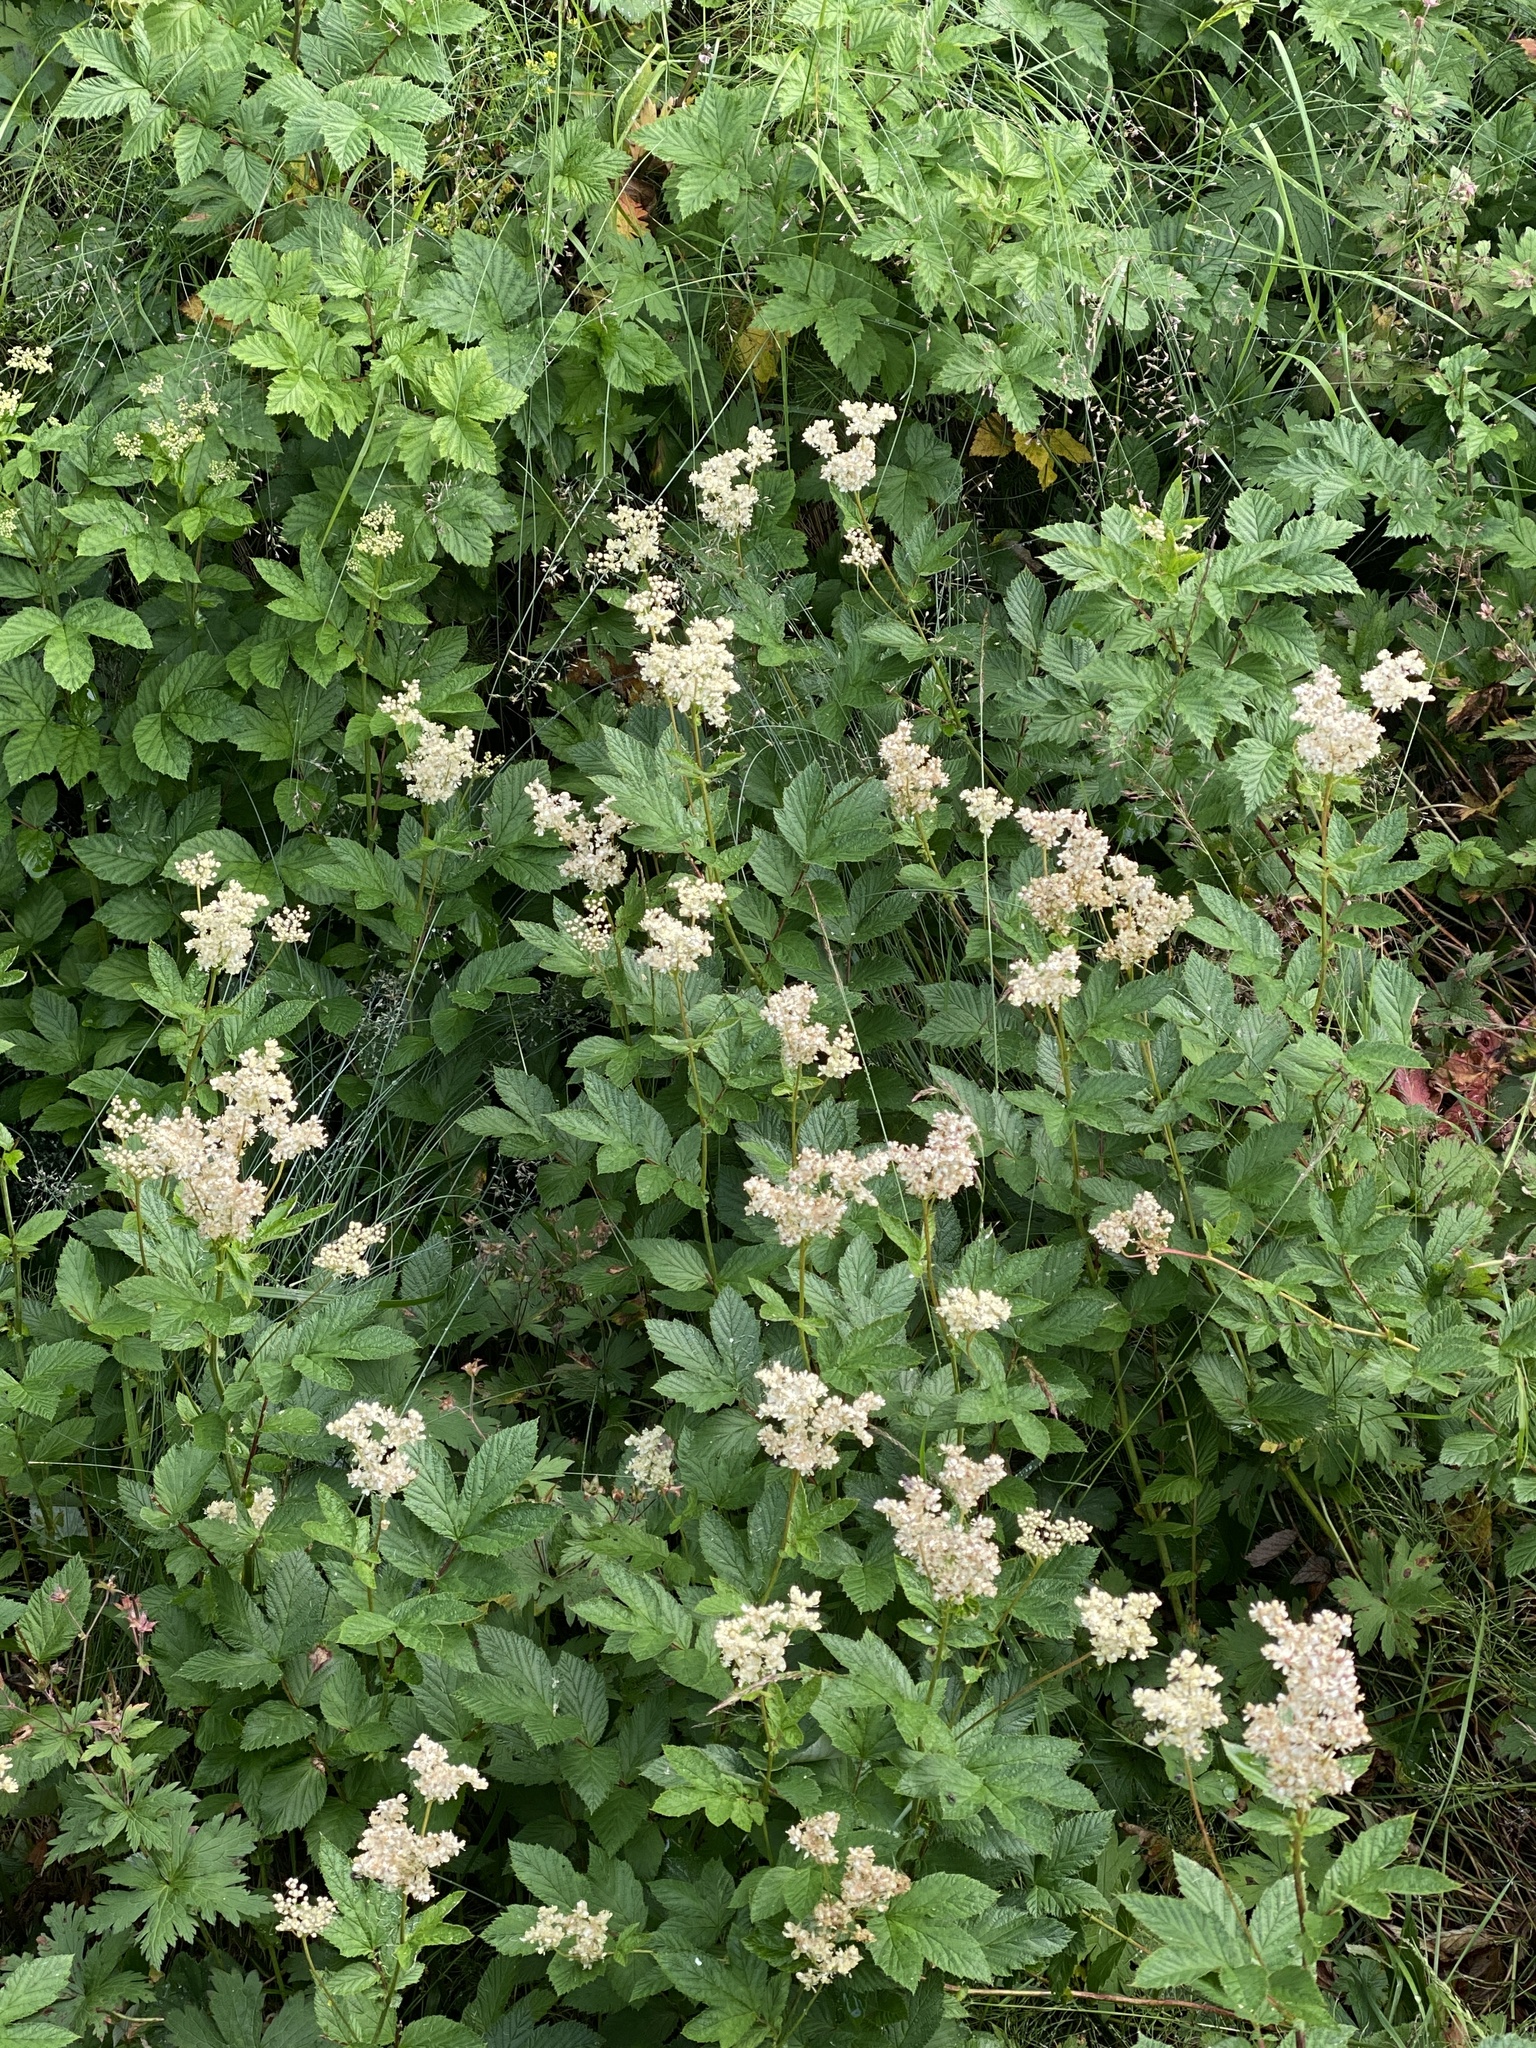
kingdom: Plantae
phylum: Tracheophyta
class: Magnoliopsida
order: Rosales
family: Rosaceae
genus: Filipendula
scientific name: Filipendula ulmaria
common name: Meadowsweet
